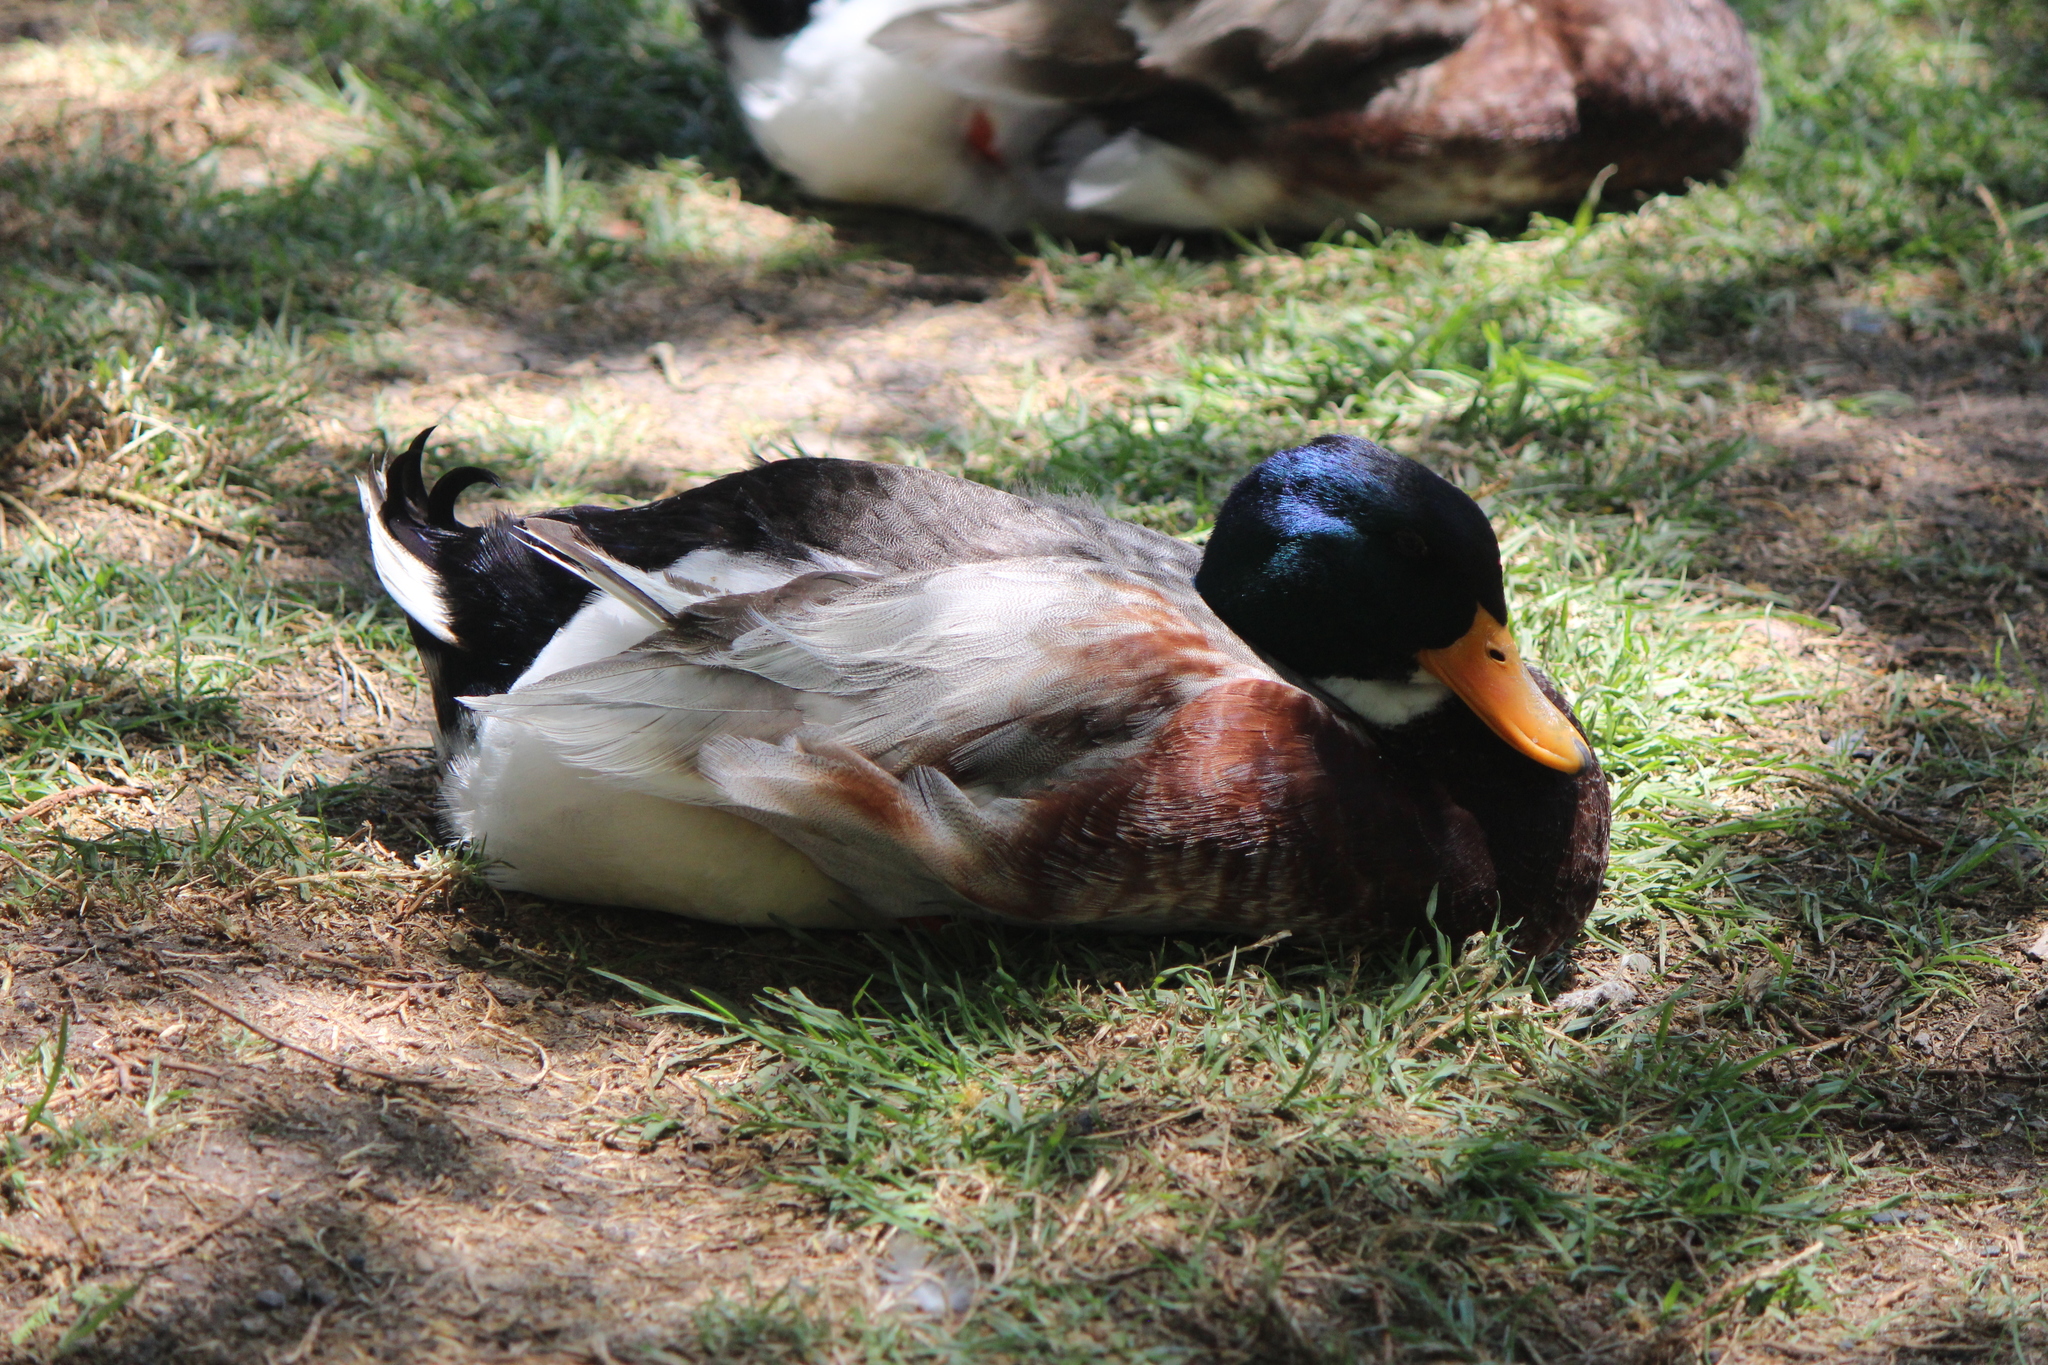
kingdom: Animalia
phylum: Chordata
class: Aves
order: Anseriformes
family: Anatidae
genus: Anas
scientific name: Anas platyrhynchos
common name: Mallard
